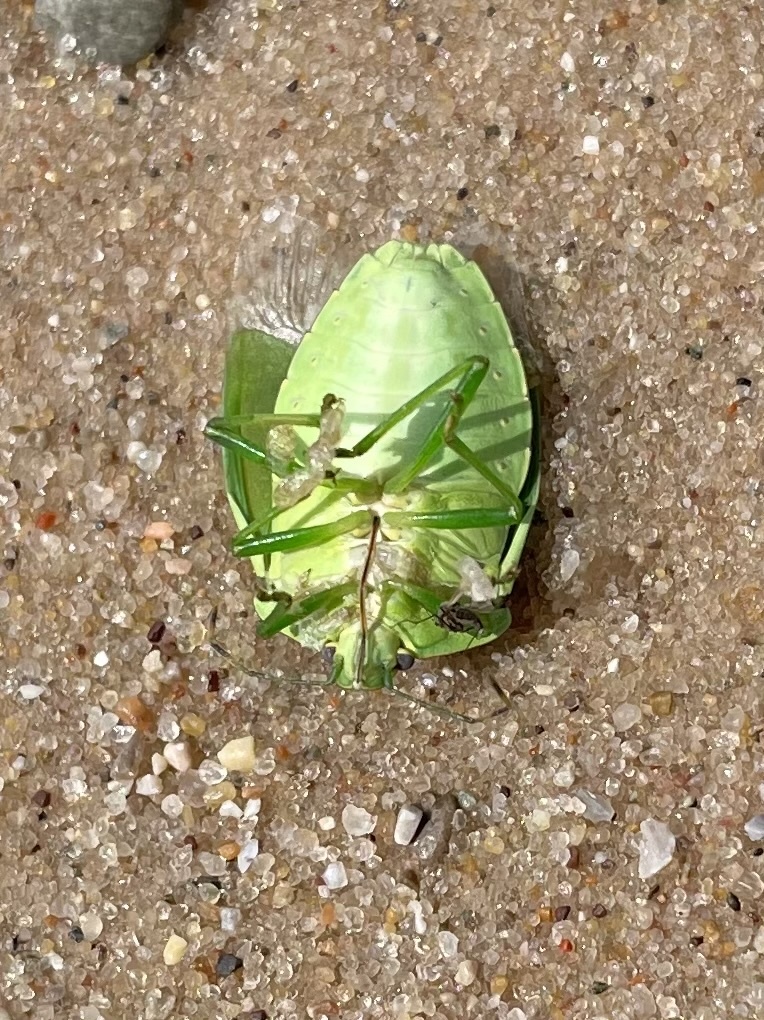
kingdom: Animalia
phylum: Arthropoda
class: Insecta
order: Hemiptera
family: Pentatomidae
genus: Chinavia
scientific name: Chinavia hilaris
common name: Green stink bug
